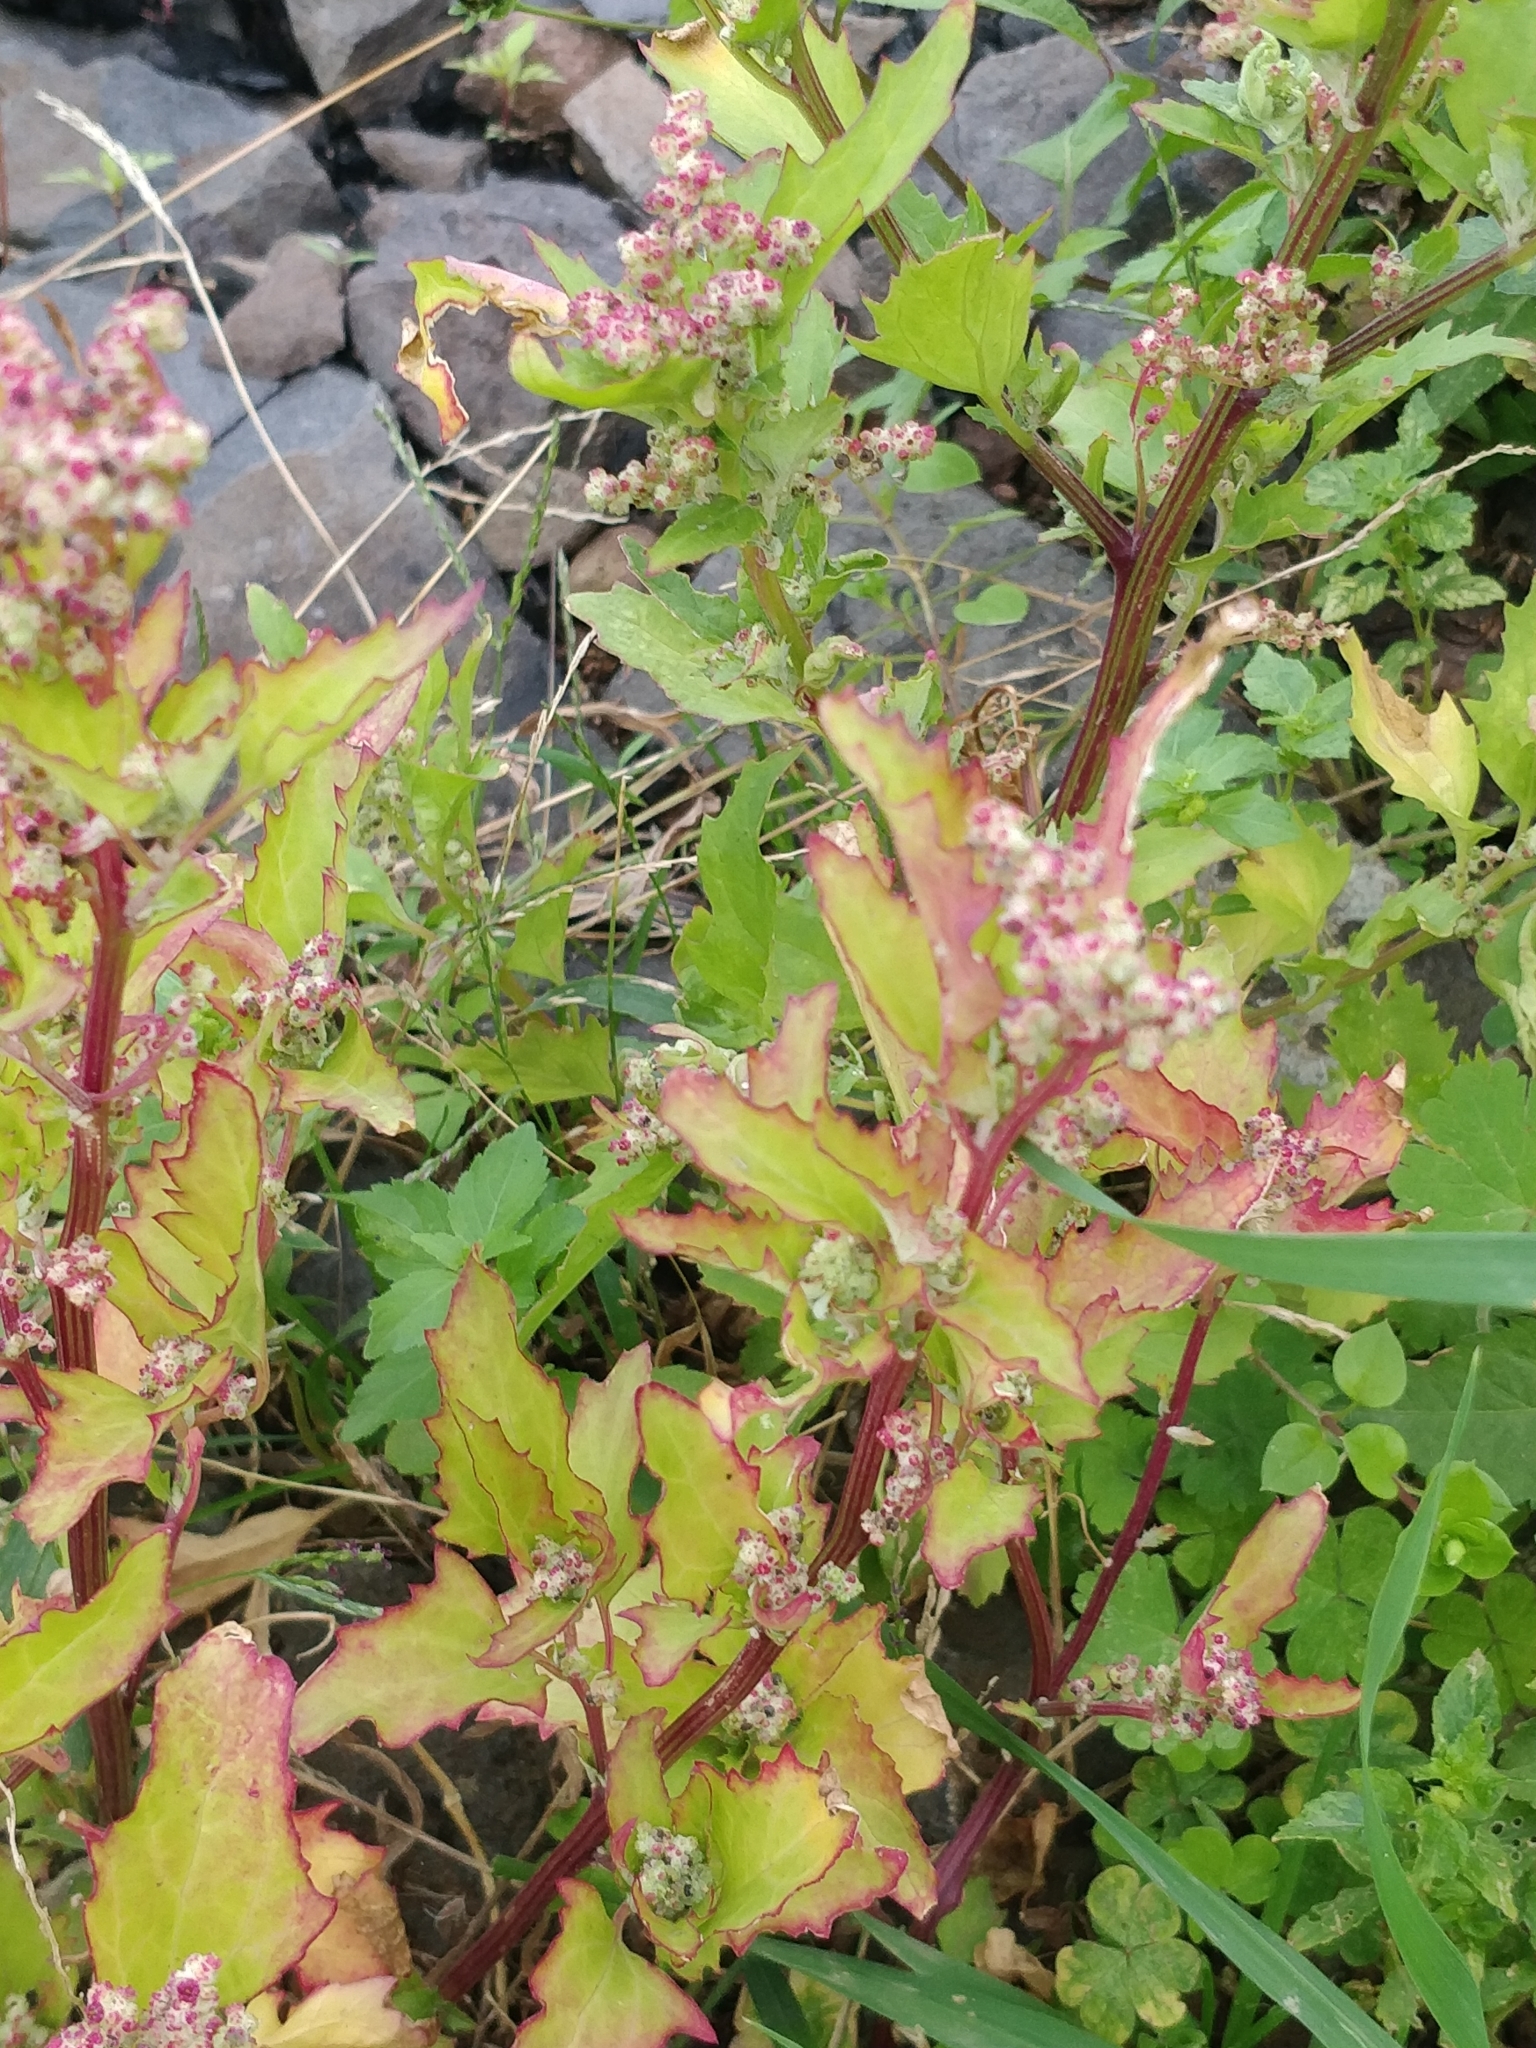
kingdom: Plantae
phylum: Tracheophyta
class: Magnoliopsida
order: Caryophyllales
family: Amaranthaceae
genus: Chenopodiastrum
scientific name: Chenopodiastrum murale
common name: Sowbane
